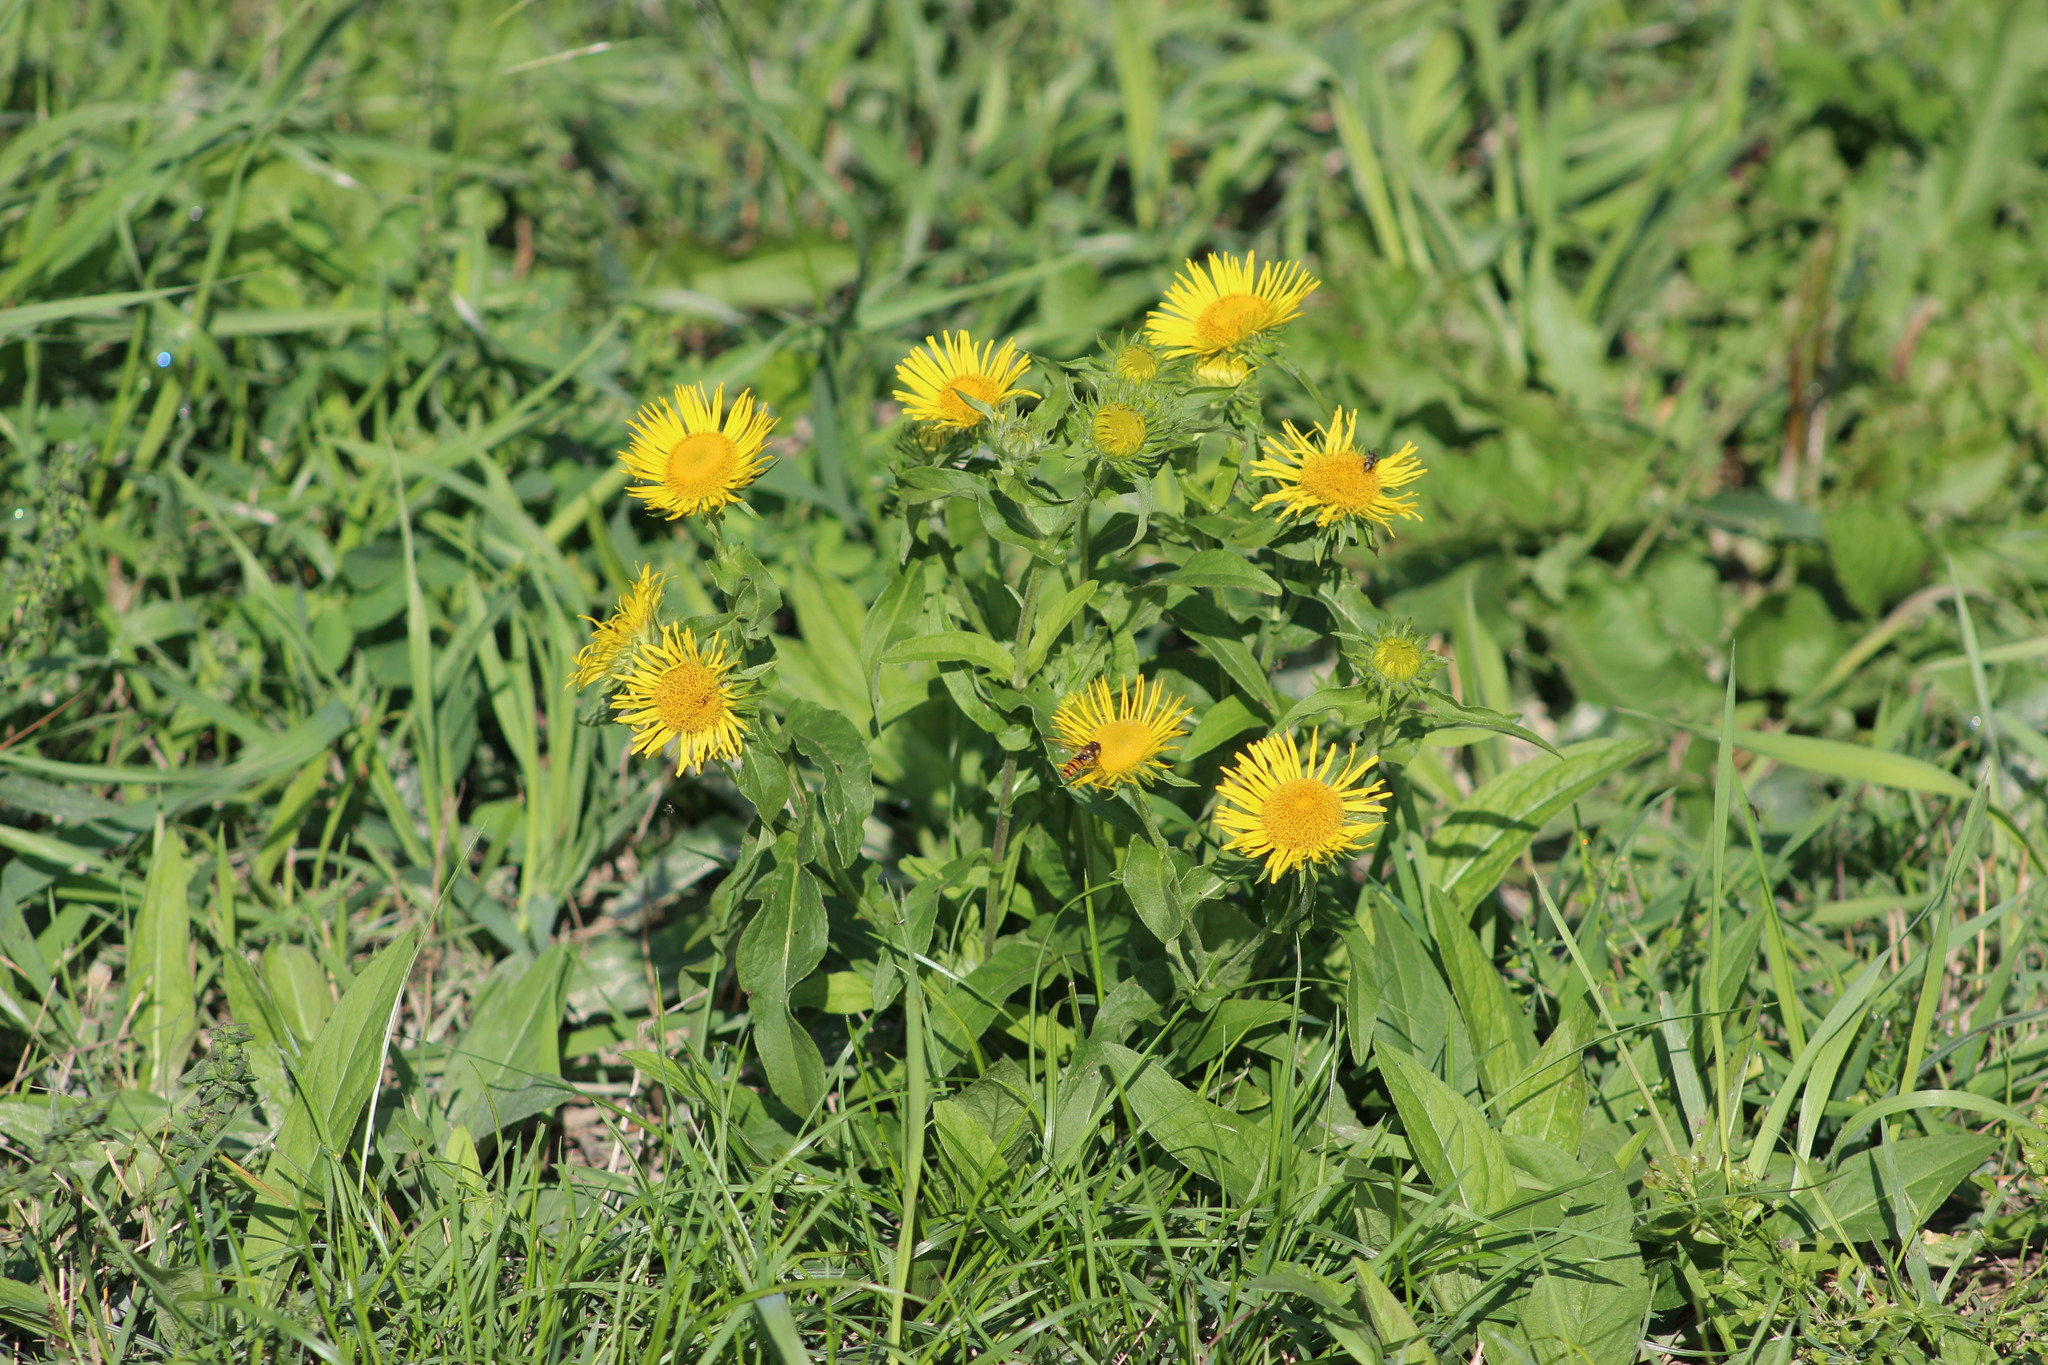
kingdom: Plantae
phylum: Tracheophyta
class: Magnoliopsida
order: Asterales
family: Asteraceae
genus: Pentanema
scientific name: Pentanema britannicum
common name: British elecampane
